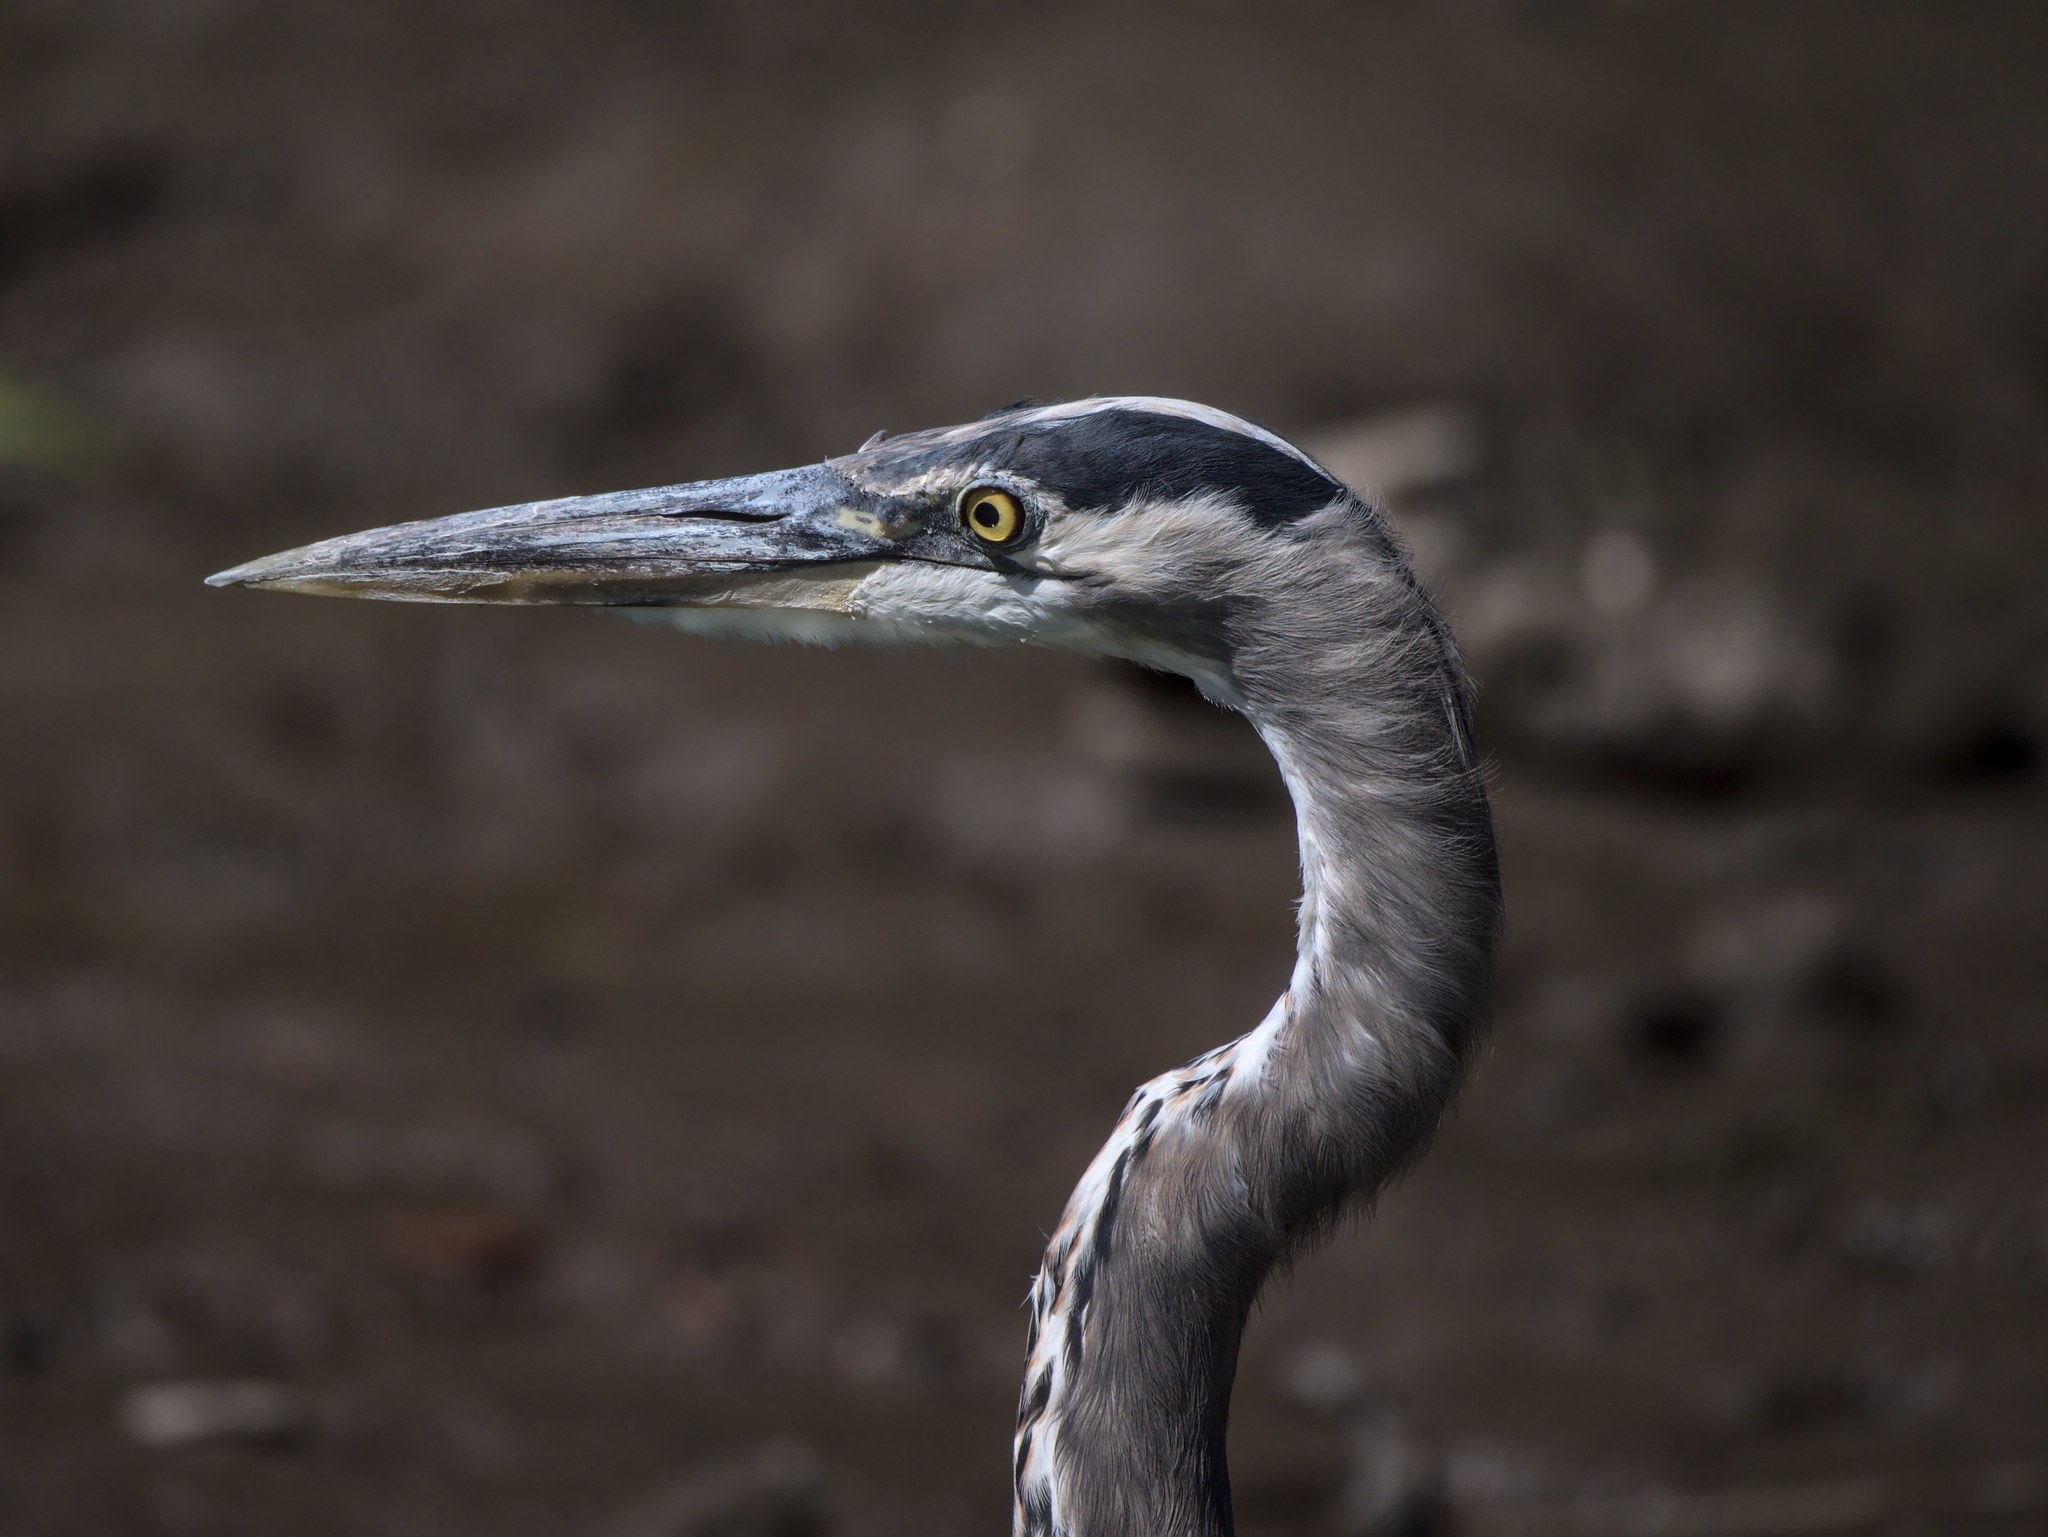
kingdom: Animalia
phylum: Chordata
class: Aves
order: Pelecaniformes
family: Ardeidae
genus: Ardea
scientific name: Ardea herodias
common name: Great blue heron
